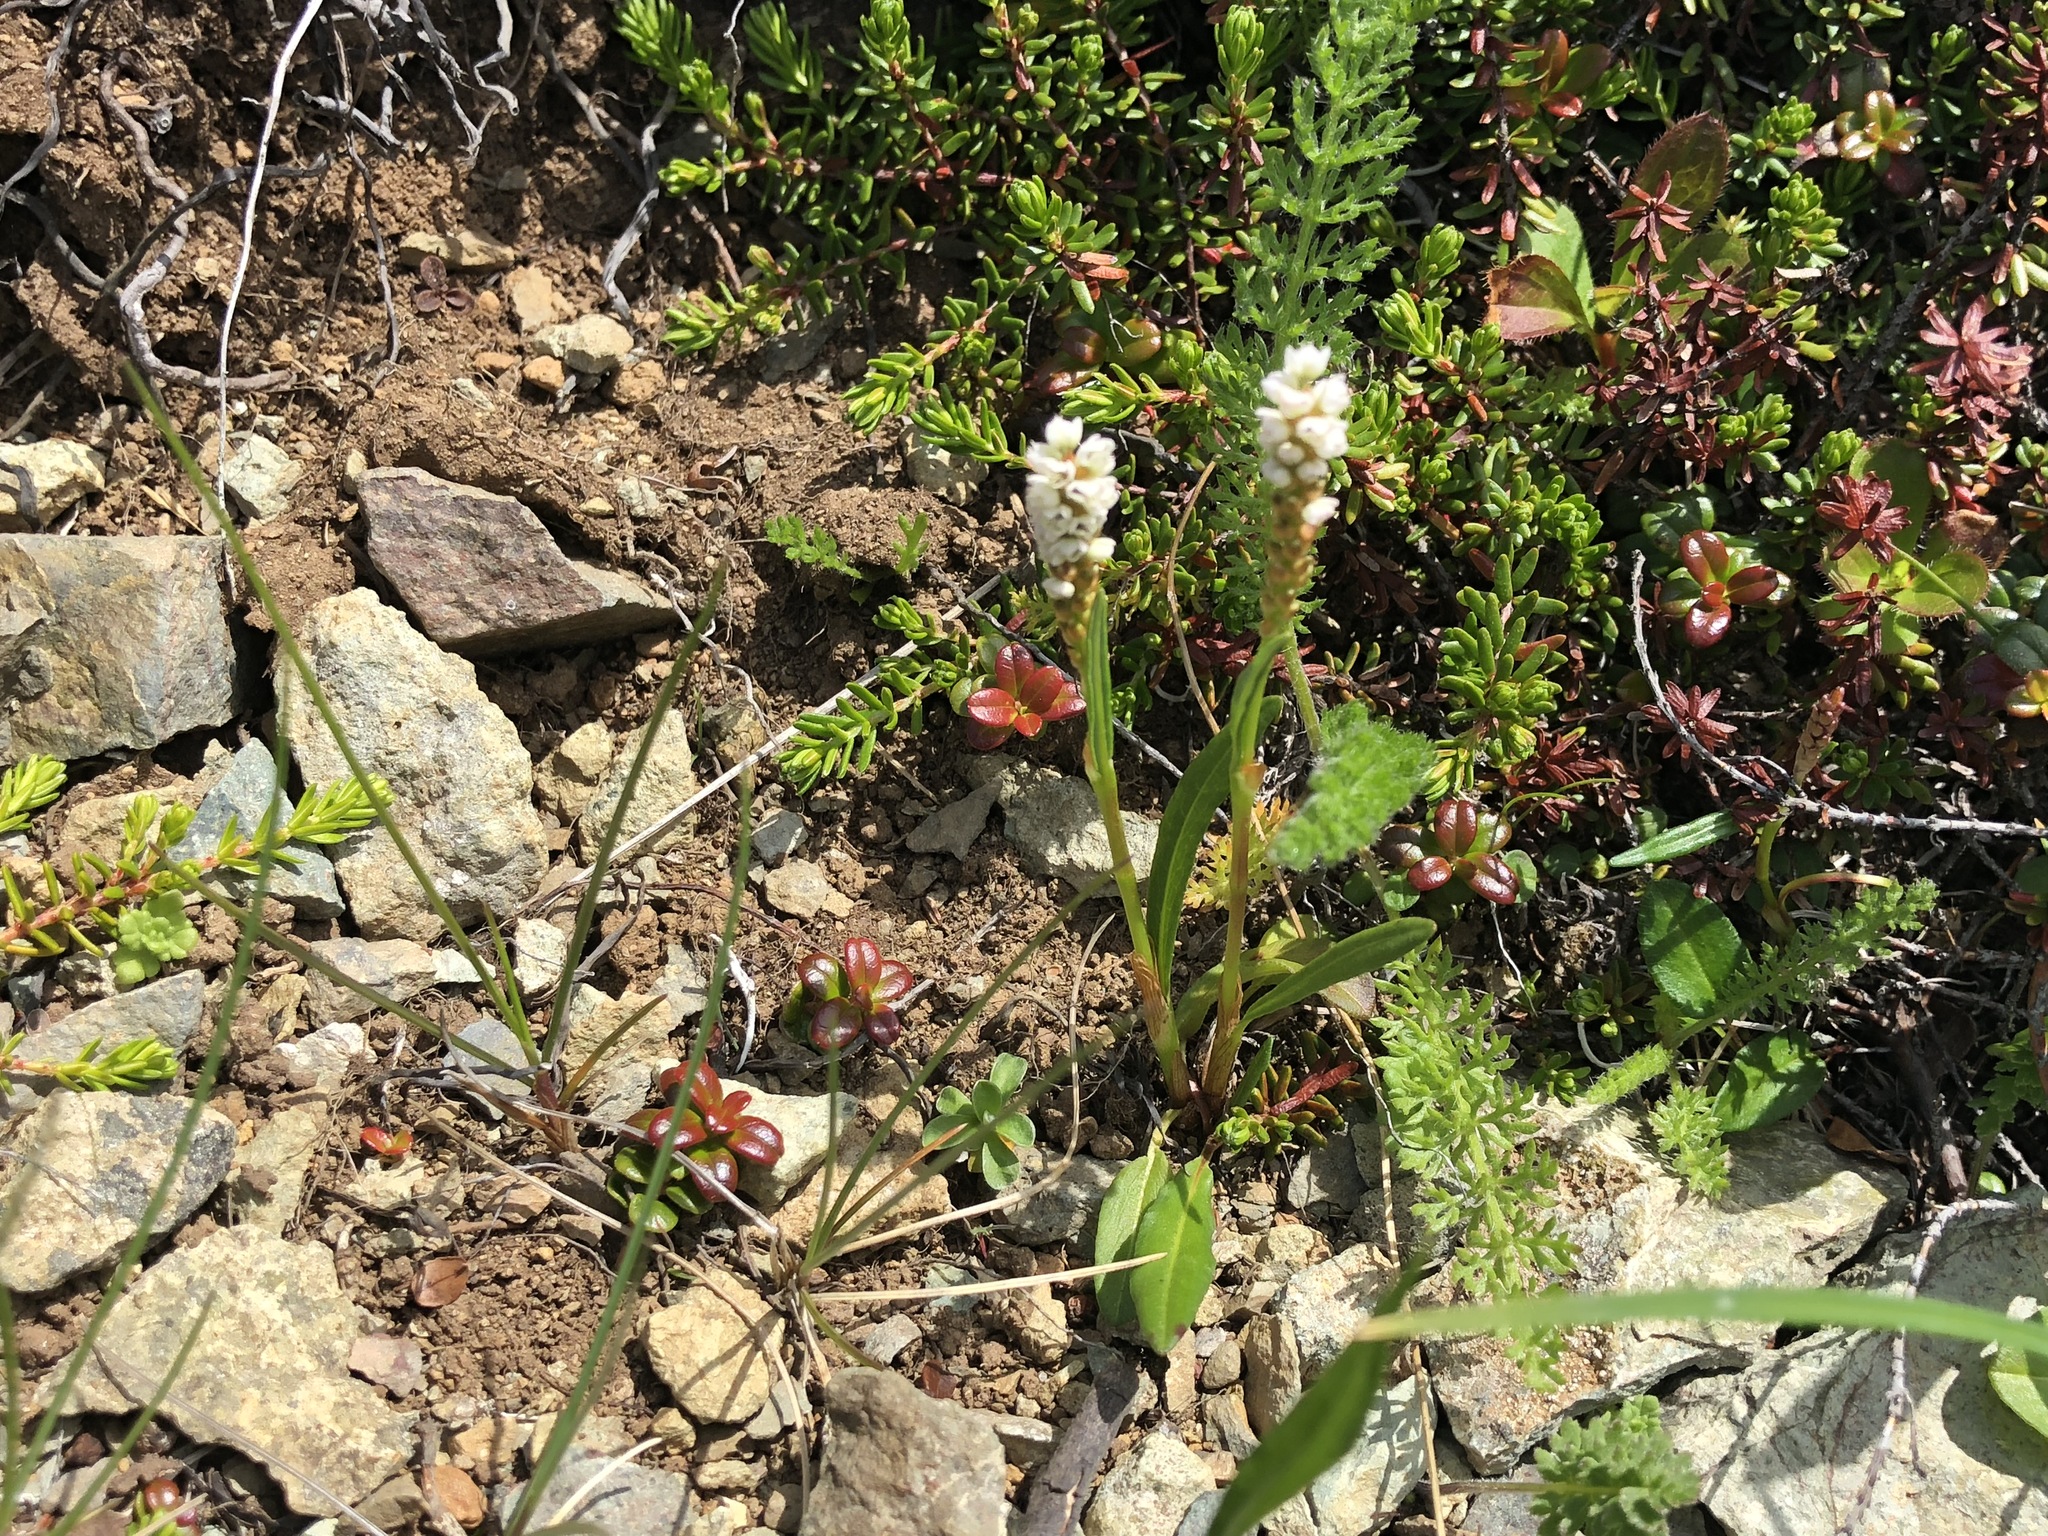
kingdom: Plantae
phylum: Tracheophyta
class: Magnoliopsida
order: Caryophyllales
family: Polygonaceae
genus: Bistorta
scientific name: Bistorta vivipara
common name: Alpine bistort
